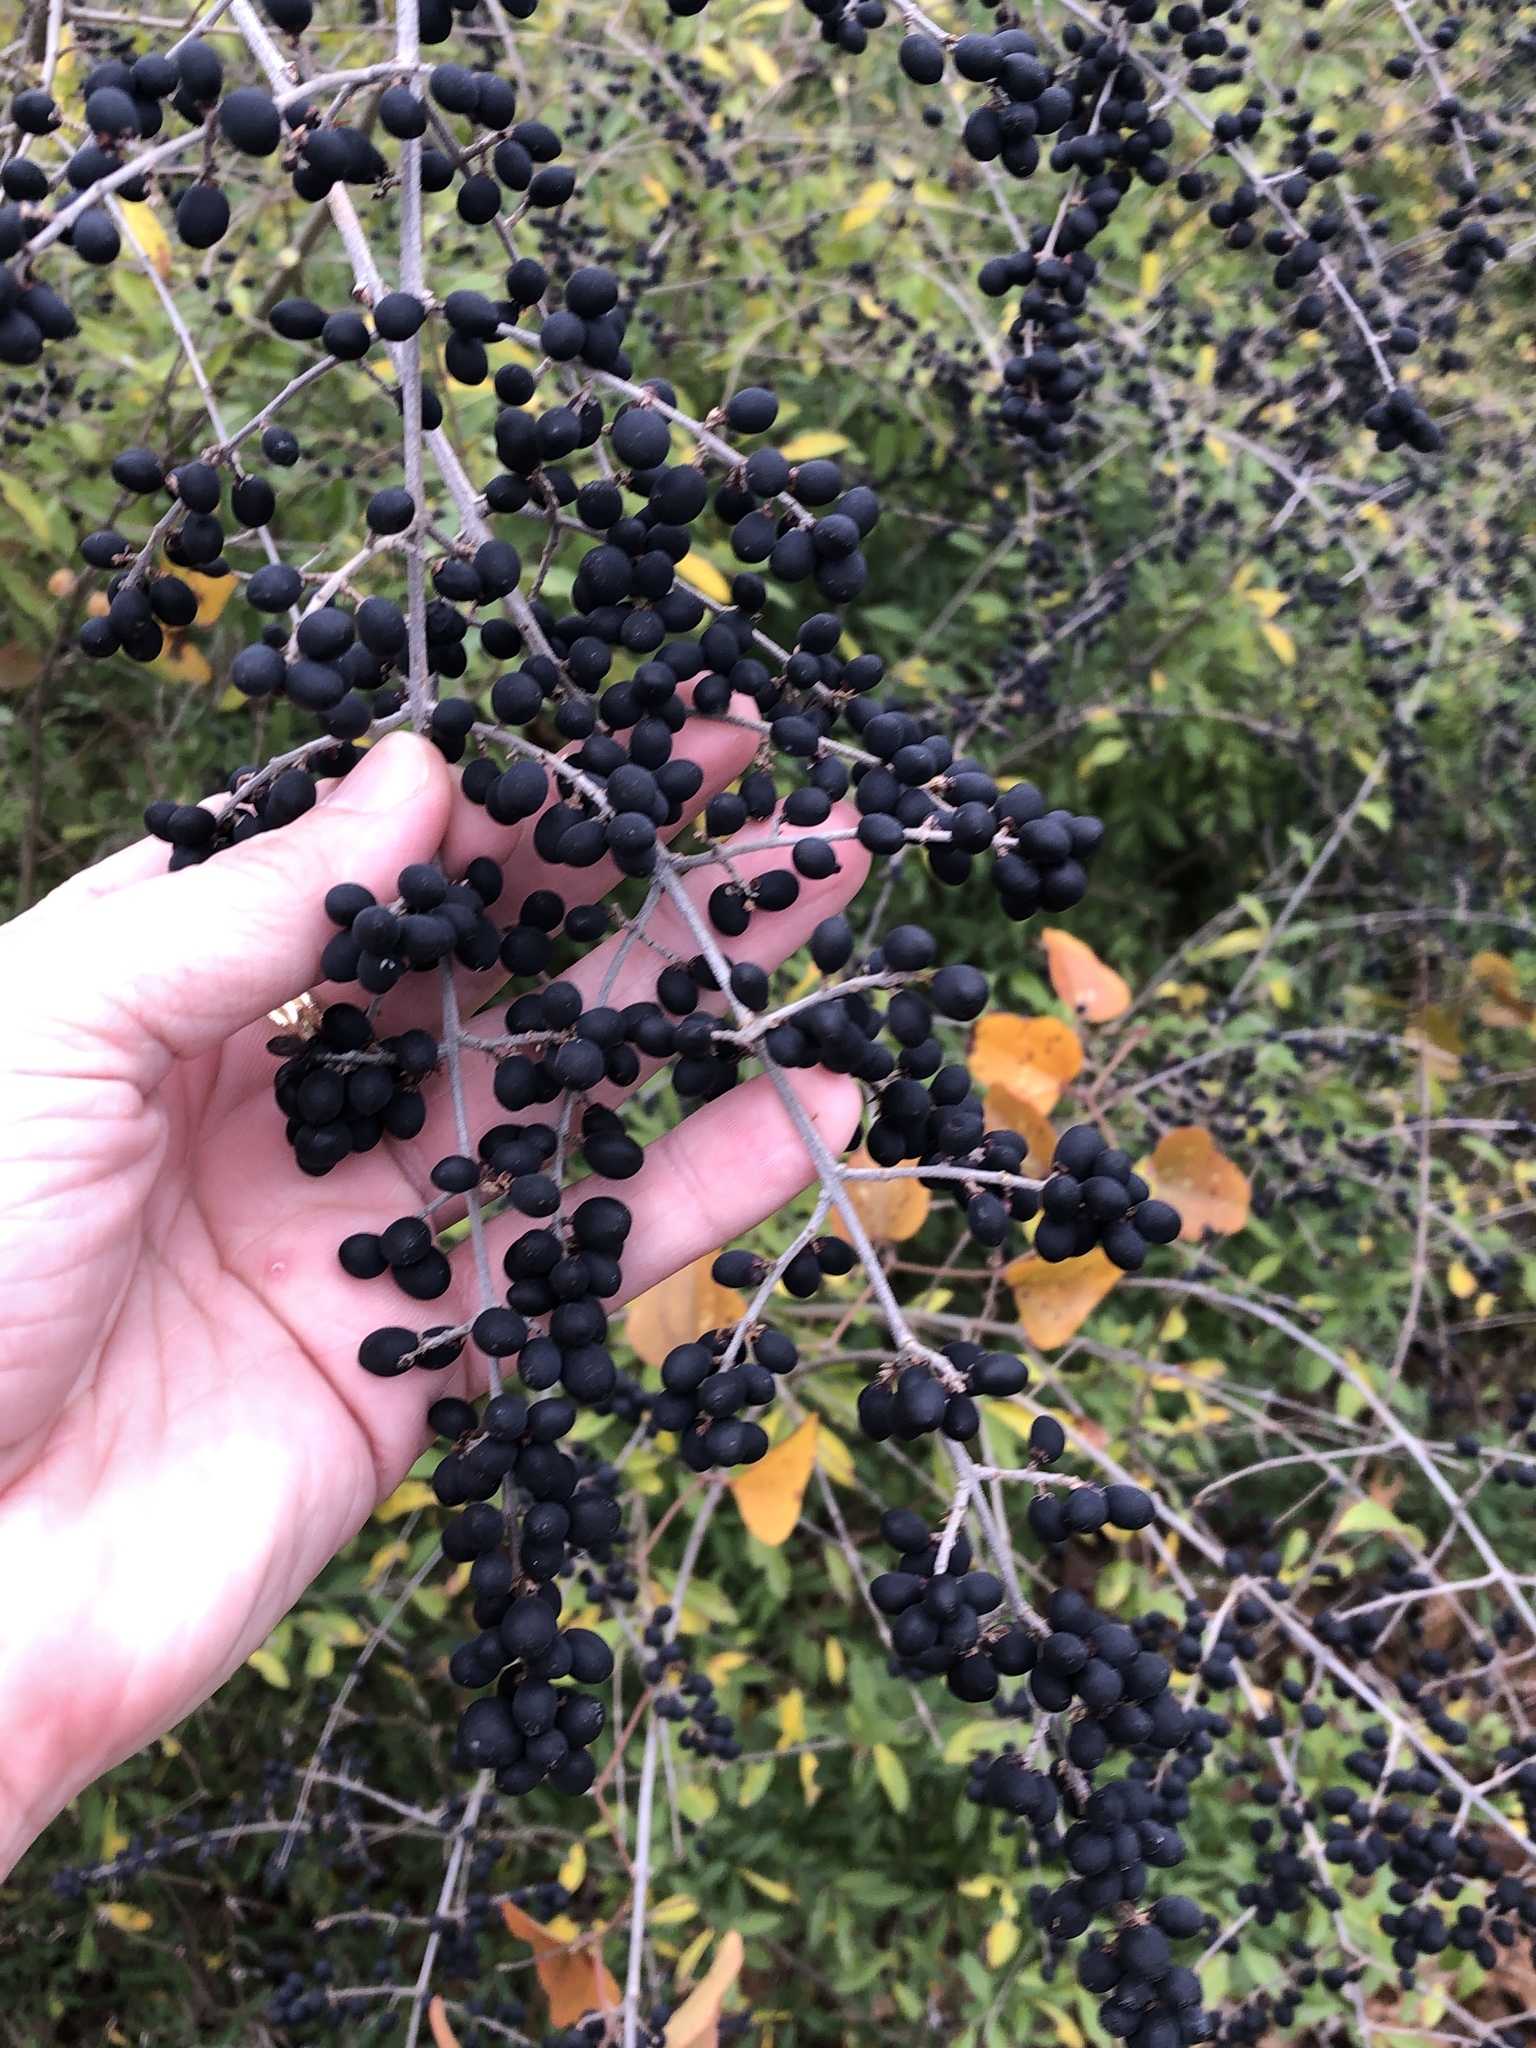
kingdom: Plantae
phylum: Tracheophyta
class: Magnoliopsida
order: Lamiales
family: Oleaceae
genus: Ligustrum
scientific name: Ligustrum quihoui
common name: Waxyleaf privet
